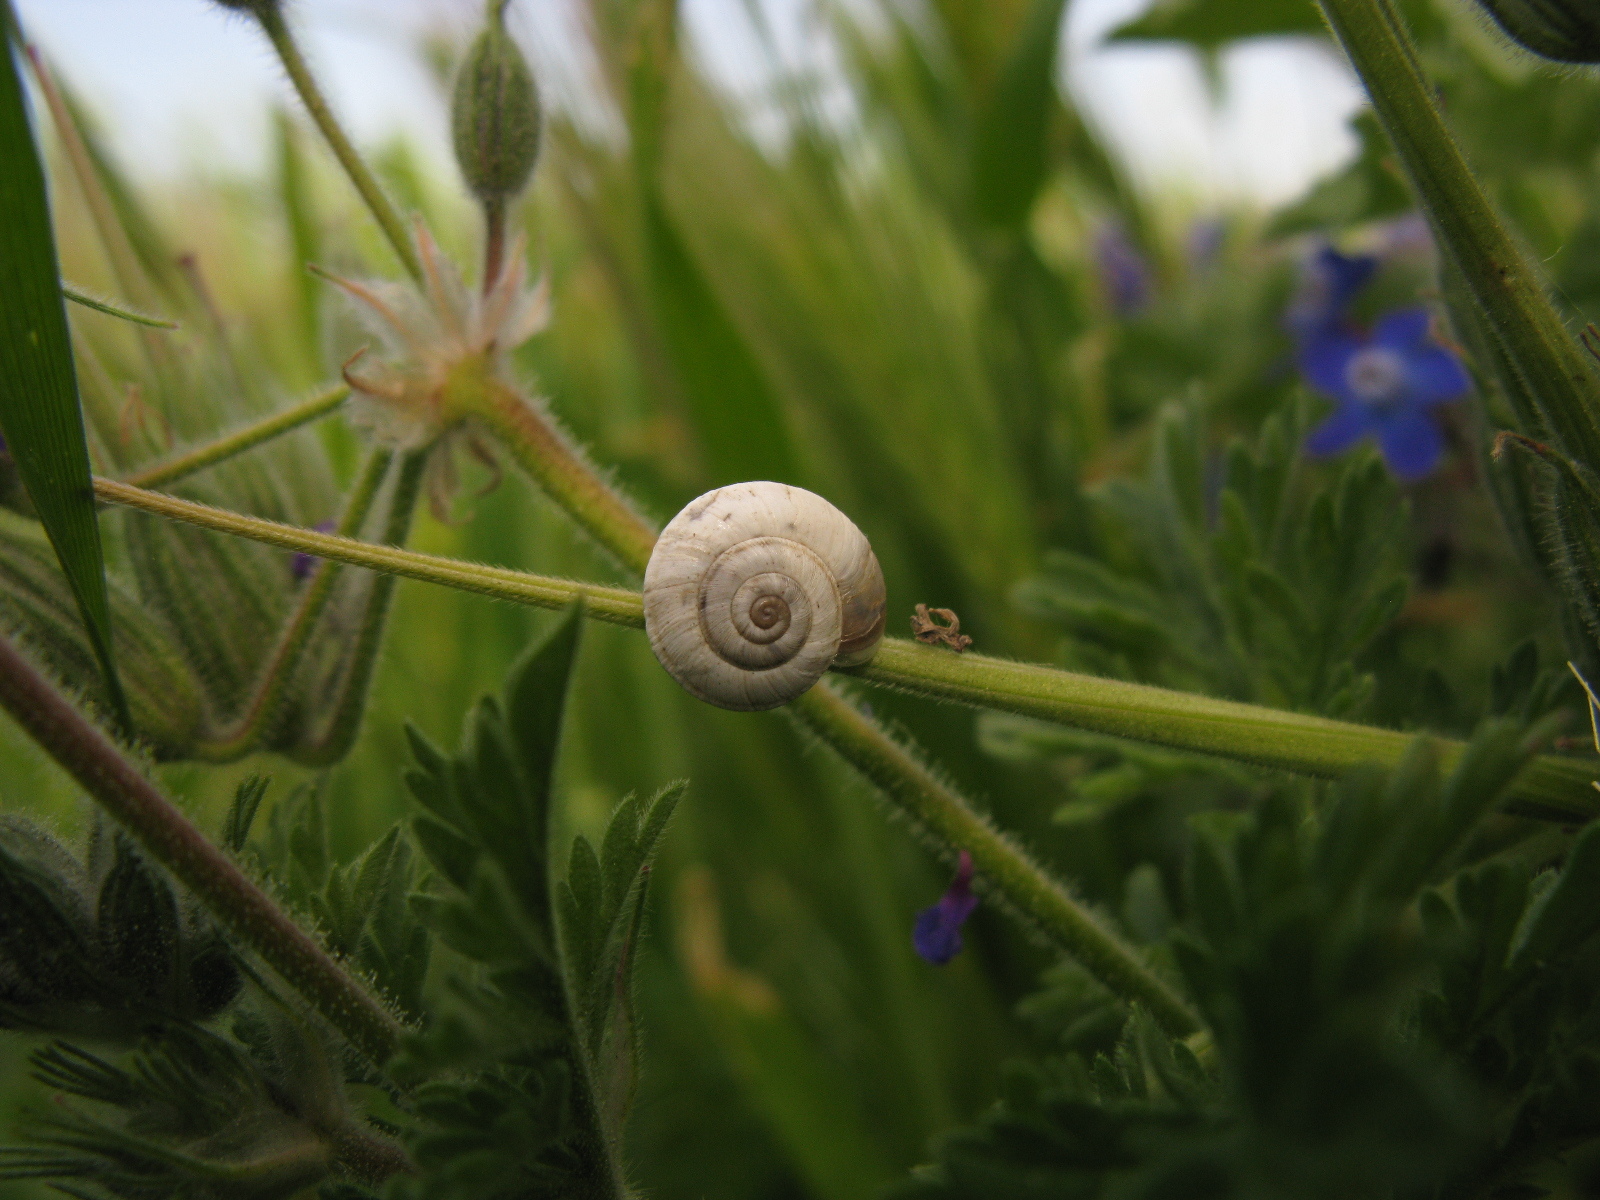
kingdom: Animalia
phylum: Mollusca
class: Gastropoda
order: Stylommatophora
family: Geomitridae
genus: Helicopsis
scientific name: Helicopsis filimargo
